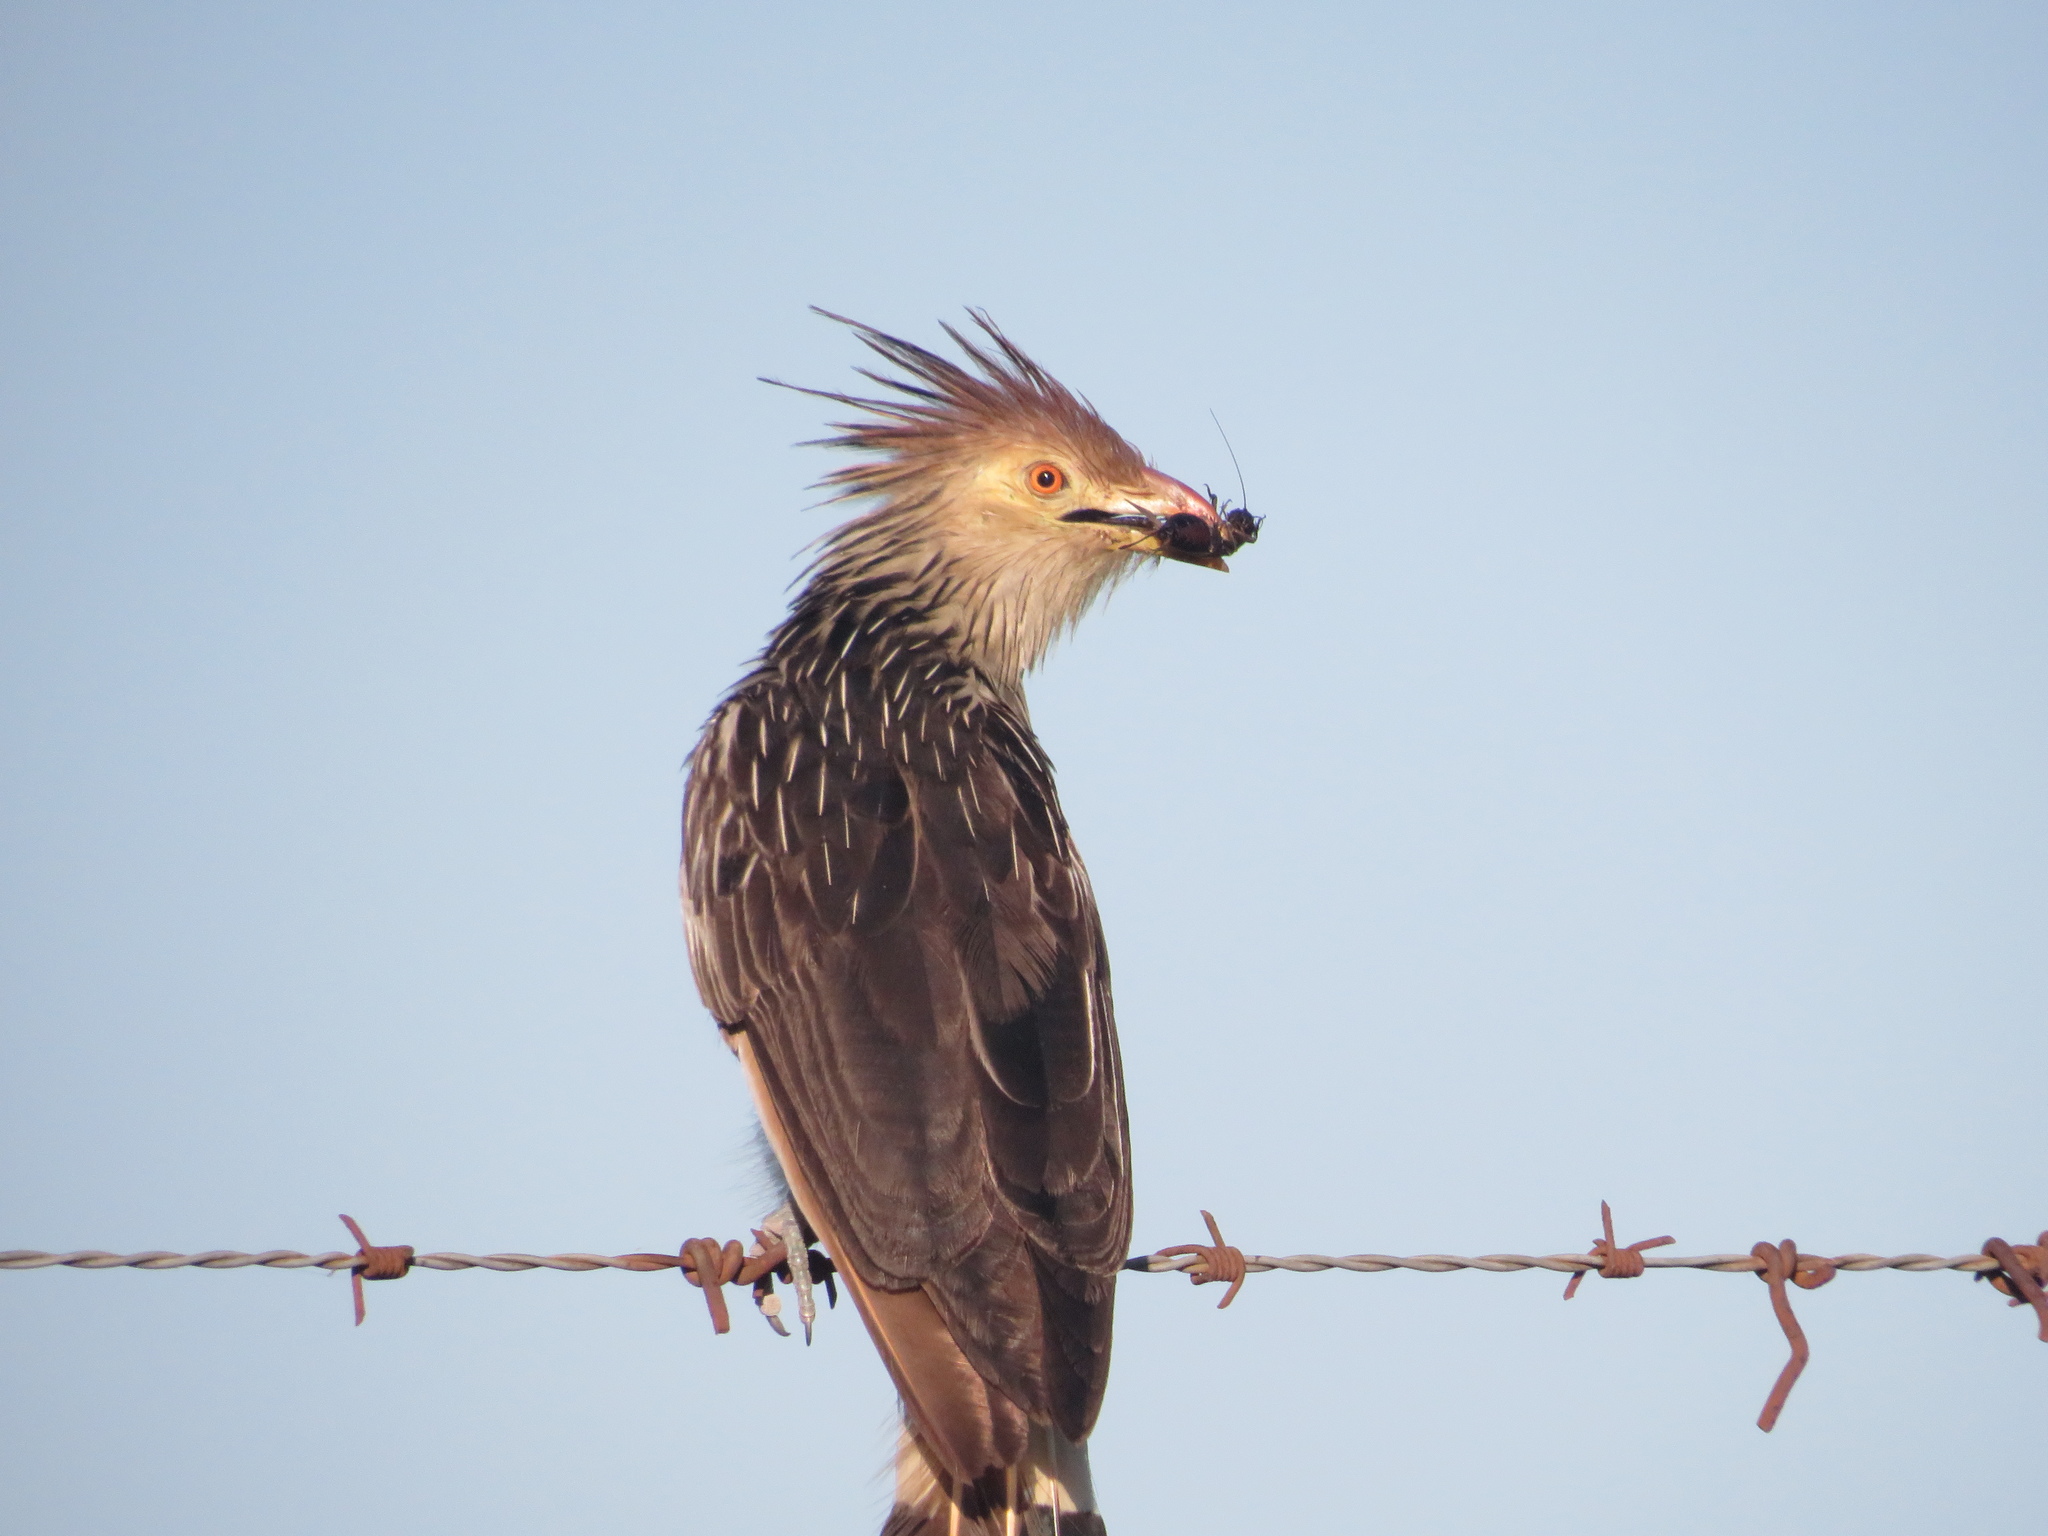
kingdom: Animalia
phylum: Chordata
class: Aves
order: Cuculiformes
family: Cuculidae
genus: Guira
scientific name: Guira guira
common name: Guira cuckoo
